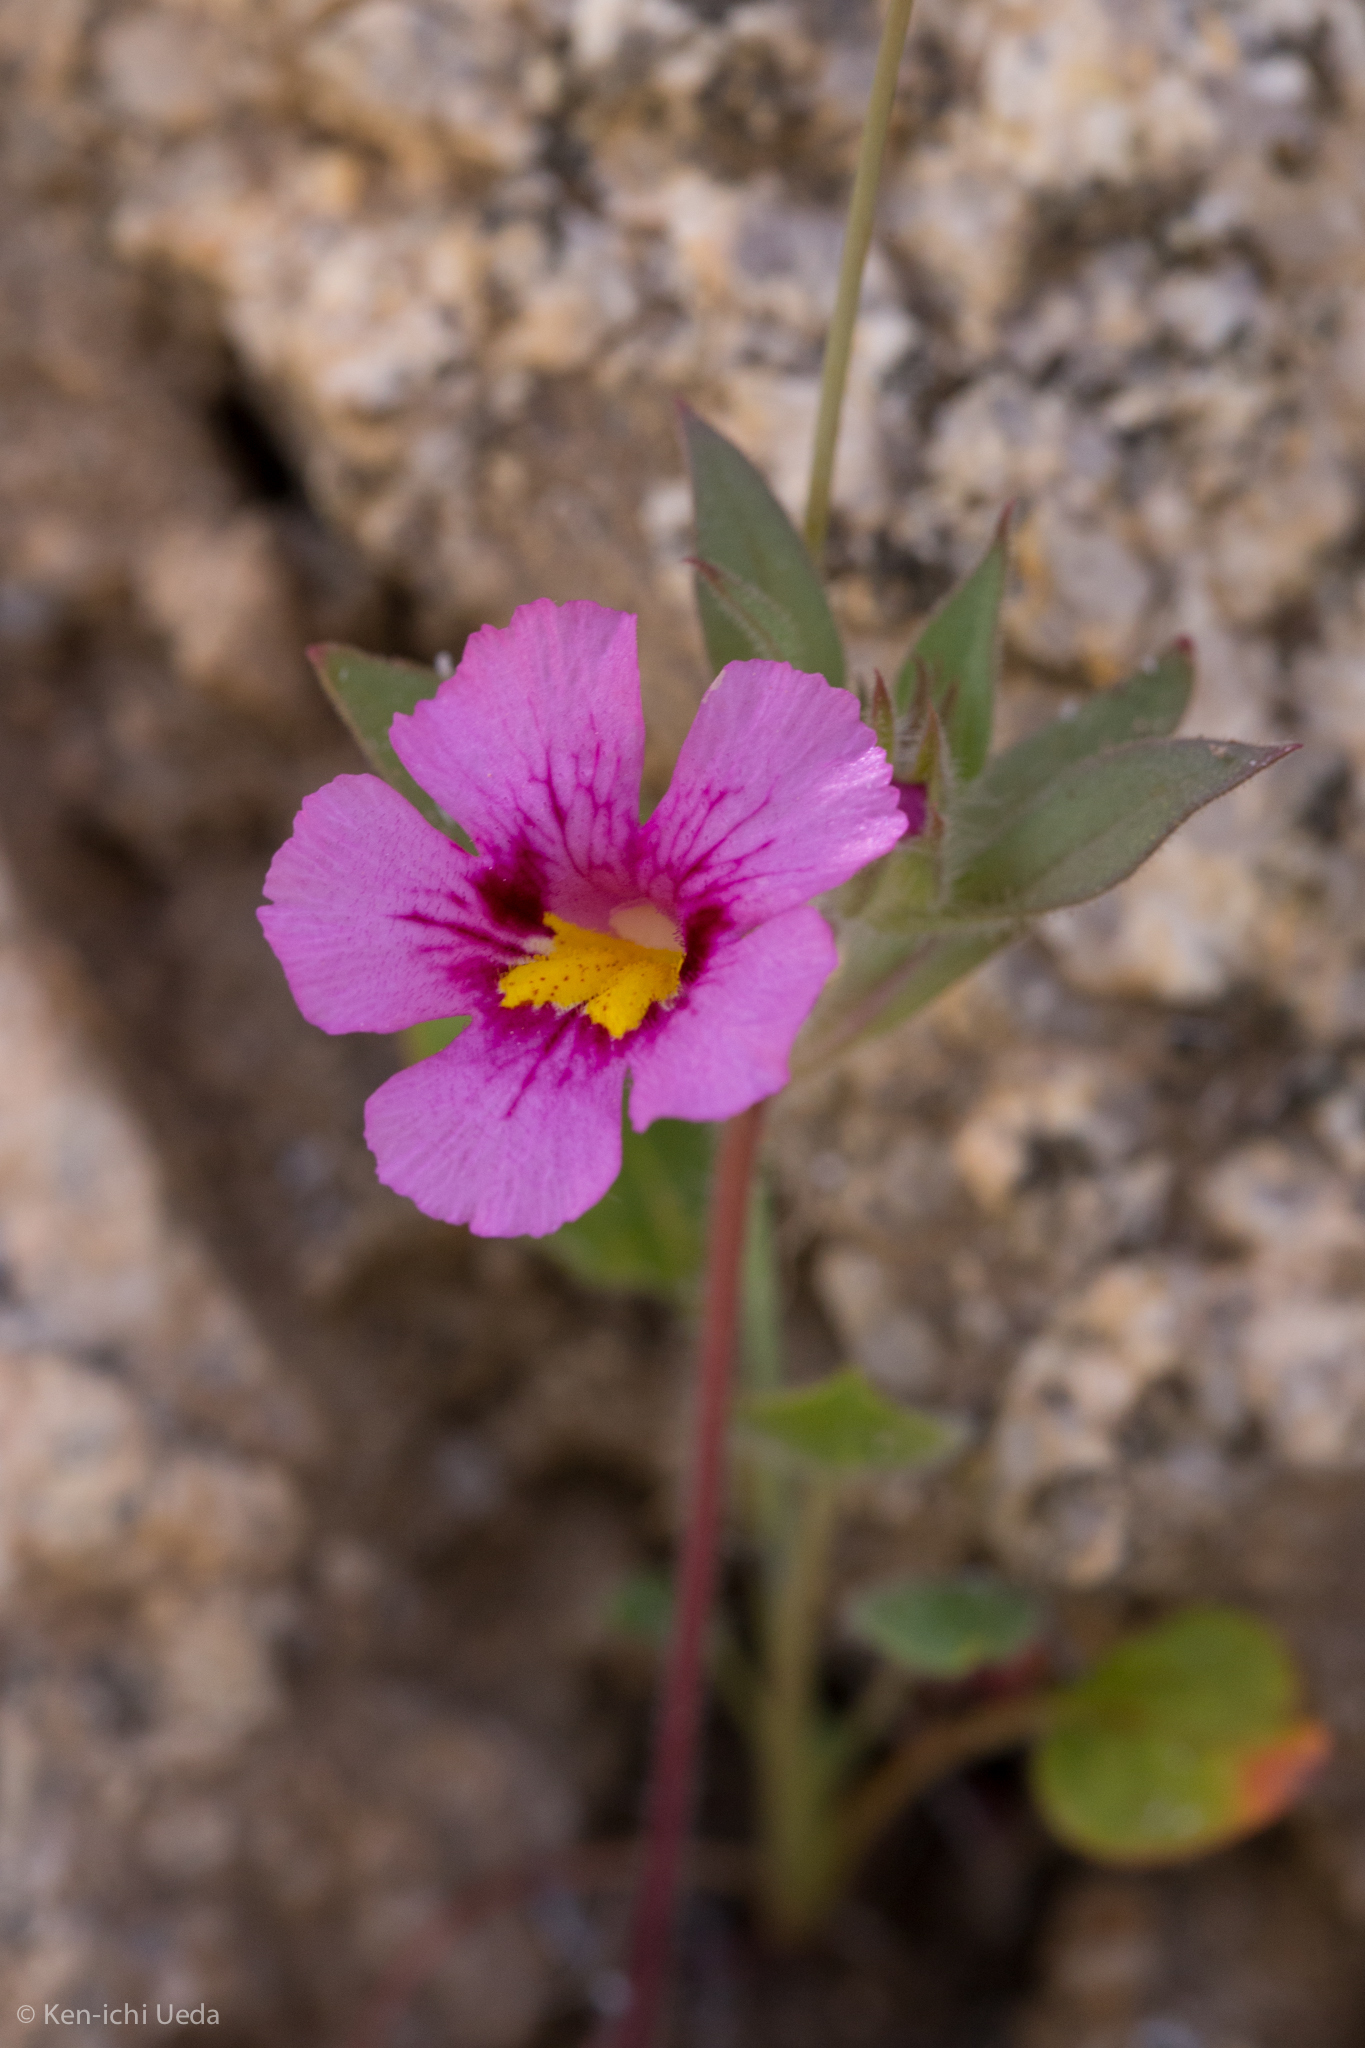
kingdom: Plantae
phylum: Tracheophyta
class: Magnoliopsida
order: Lamiales
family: Phrymaceae
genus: Diplacus
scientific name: Diplacus bigelovii
